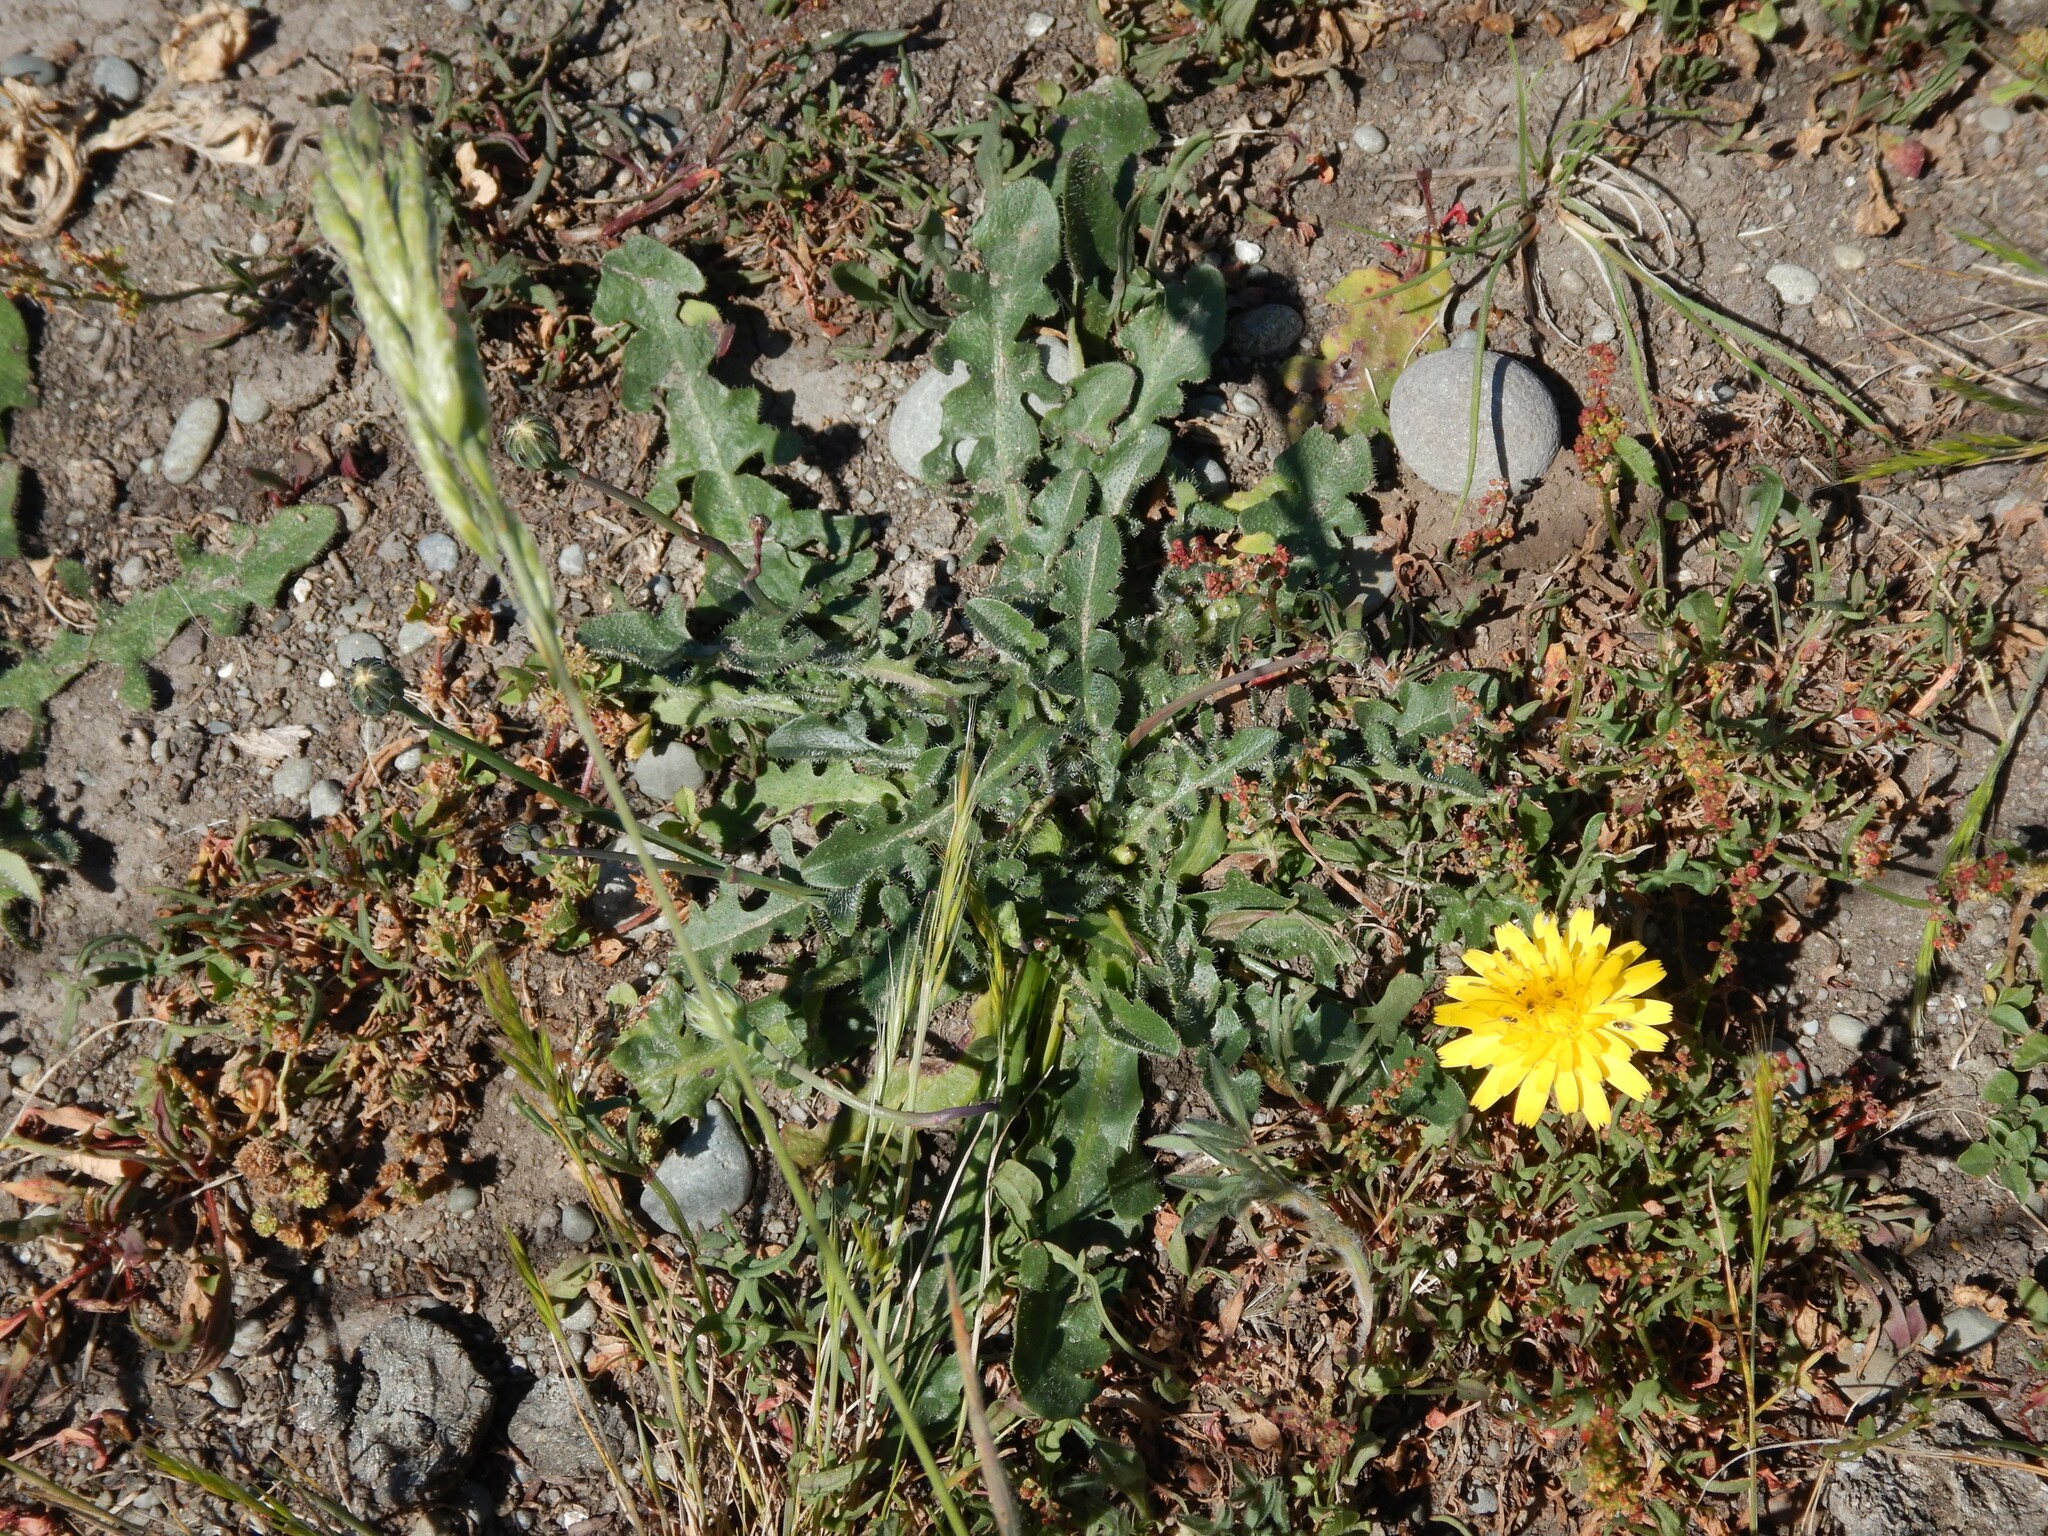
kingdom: Plantae
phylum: Tracheophyta
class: Magnoliopsida
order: Asterales
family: Asteraceae
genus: Hypochaeris
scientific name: Hypochaeris radicata
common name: Flatweed
